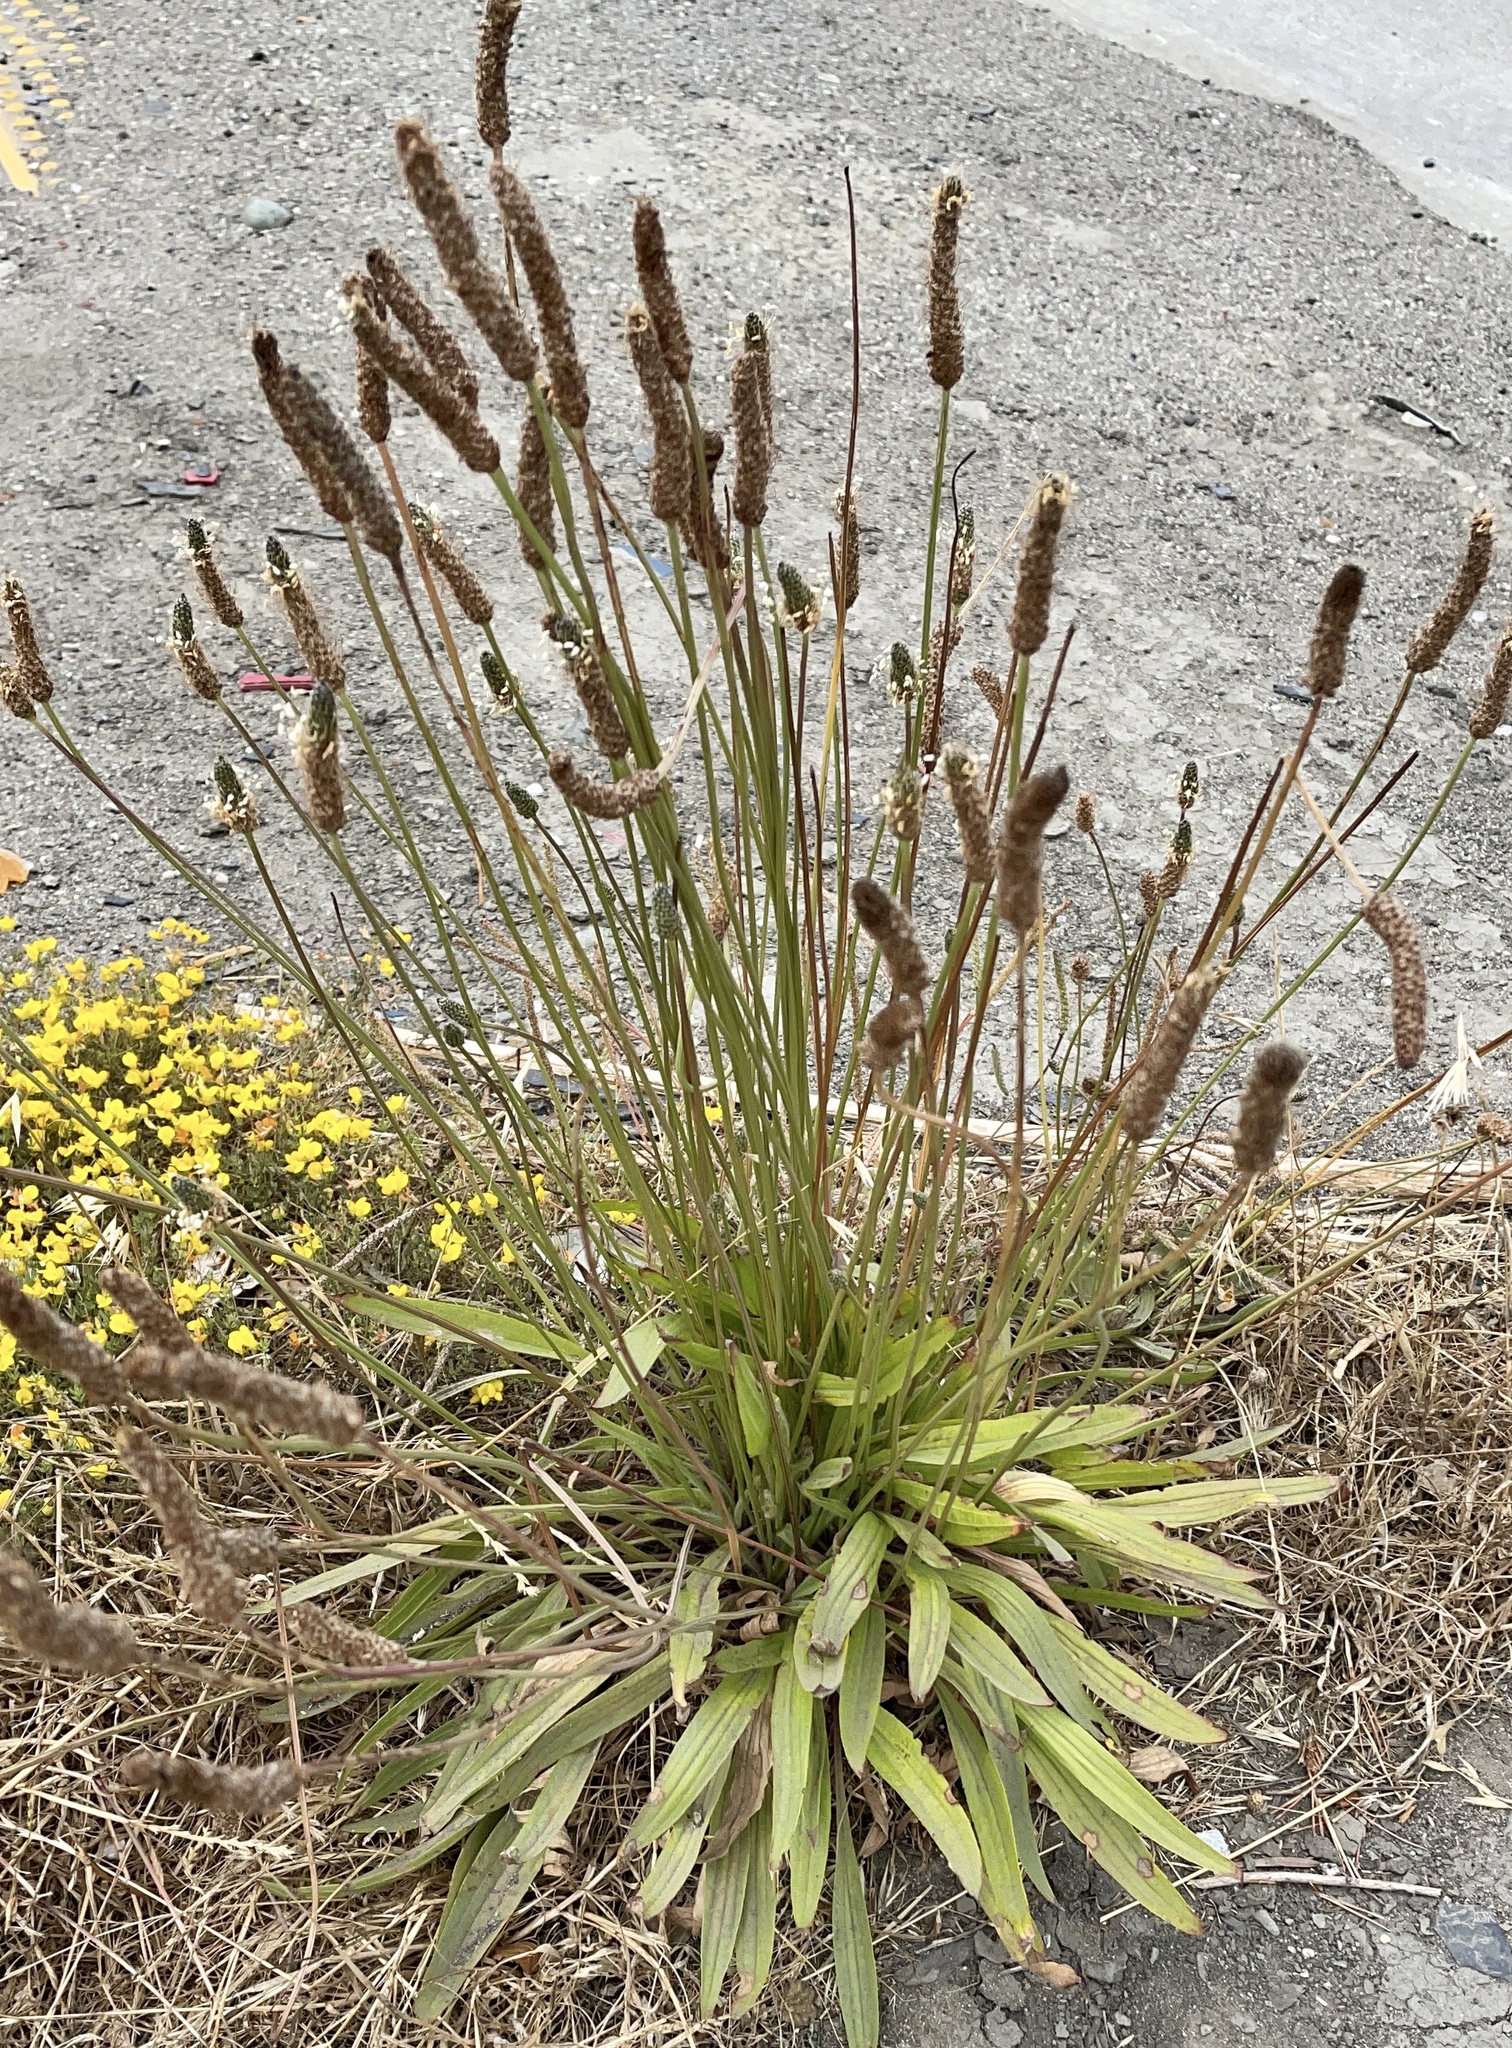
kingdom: Plantae
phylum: Tracheophyta
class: Magnoliopsida
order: Lamiales
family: Plantaginaceae
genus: Plantago
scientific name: Plantago lanceolata
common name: Ribwort plantain
